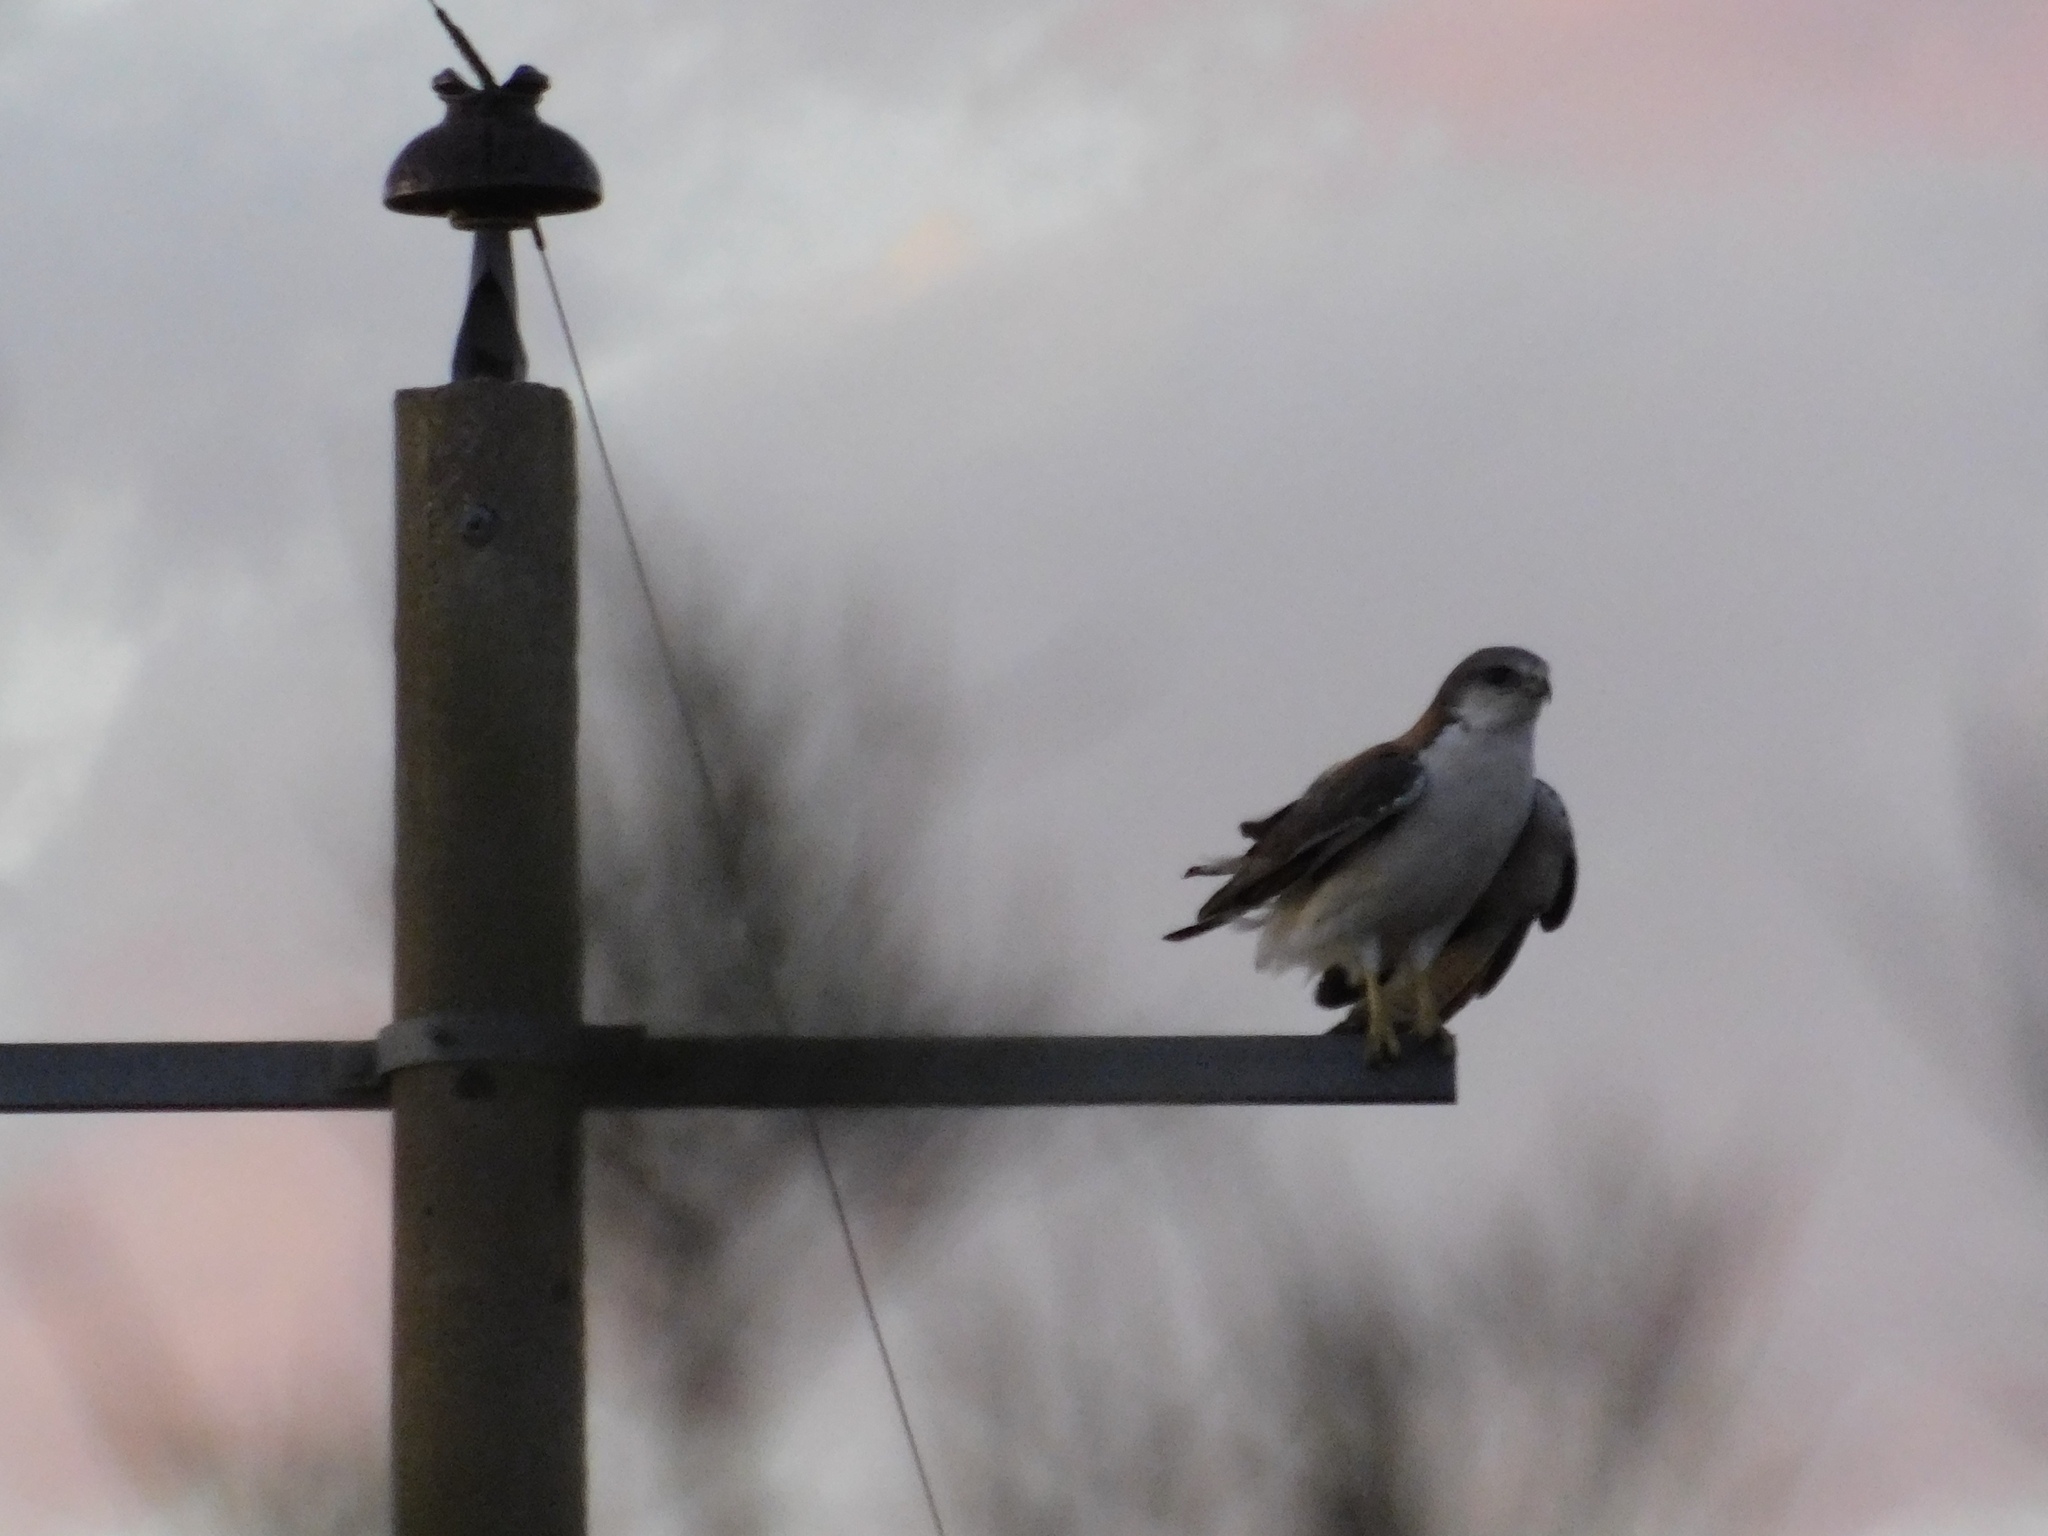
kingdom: Animalia
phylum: Chordata
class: Aves
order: Accipitriformes
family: Accipitridae
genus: Buteo
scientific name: Buteo polyosoma
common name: Variable hawk
